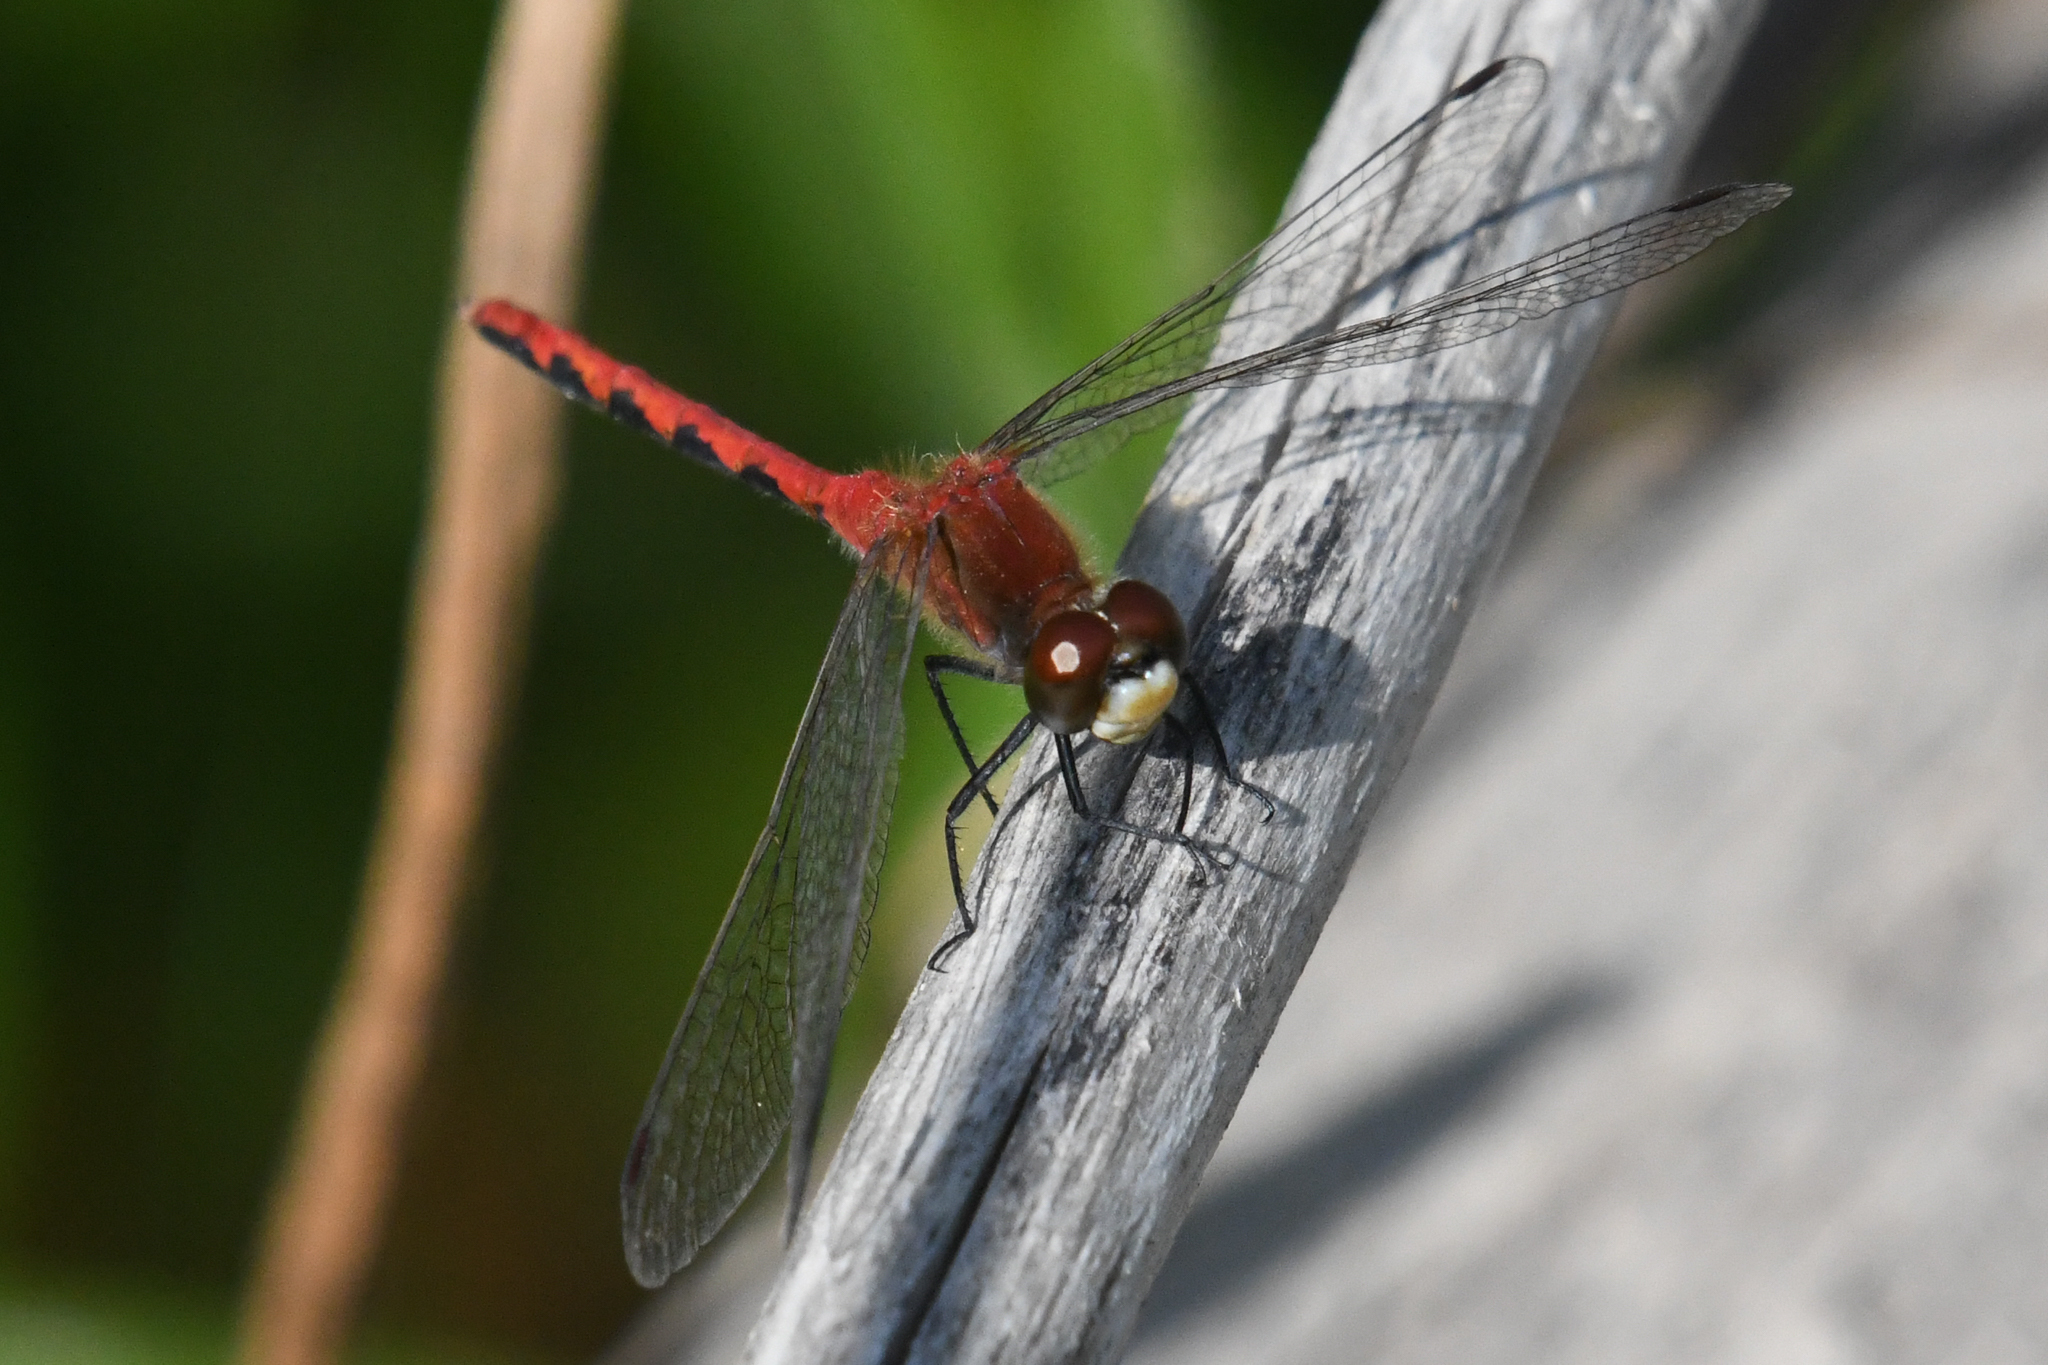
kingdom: Animalia
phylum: Arthropoda
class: Insecta
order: Odonata
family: Libellulidae
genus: Sympetrum
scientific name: Sympetrum obtrusum
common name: White-faced meadowhawk
